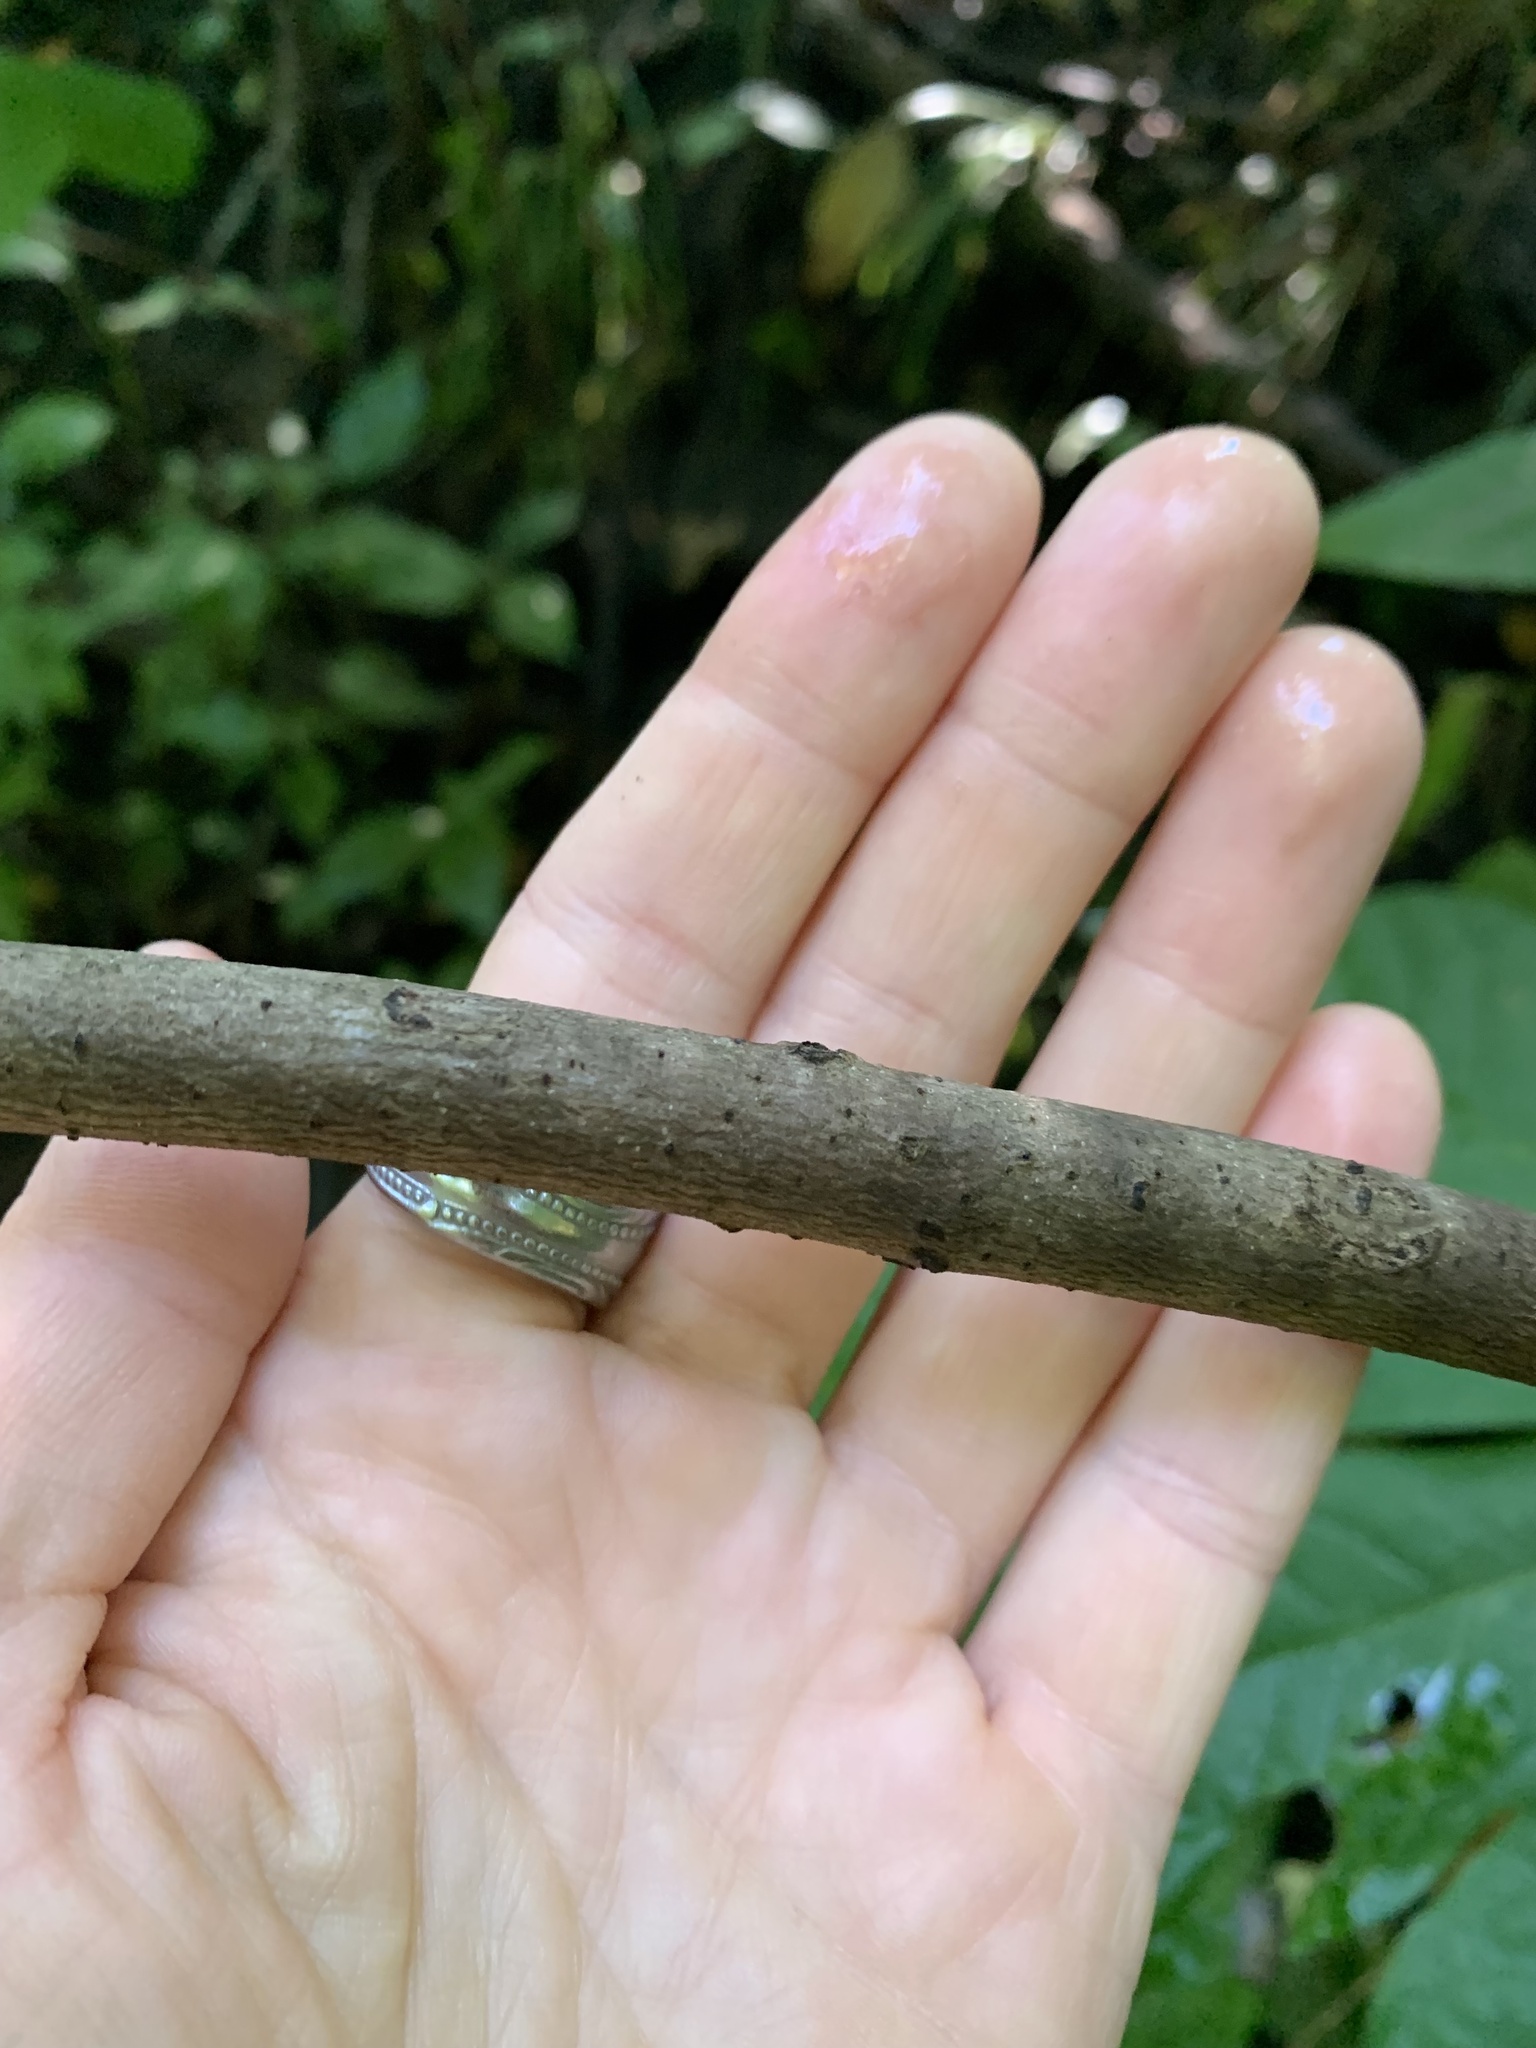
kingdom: Plantae
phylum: Tracheophyta
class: Magnoliopsida
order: Magnoliales
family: Annonaceae
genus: Asimina
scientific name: Asimina triloba
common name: Dog-banana
